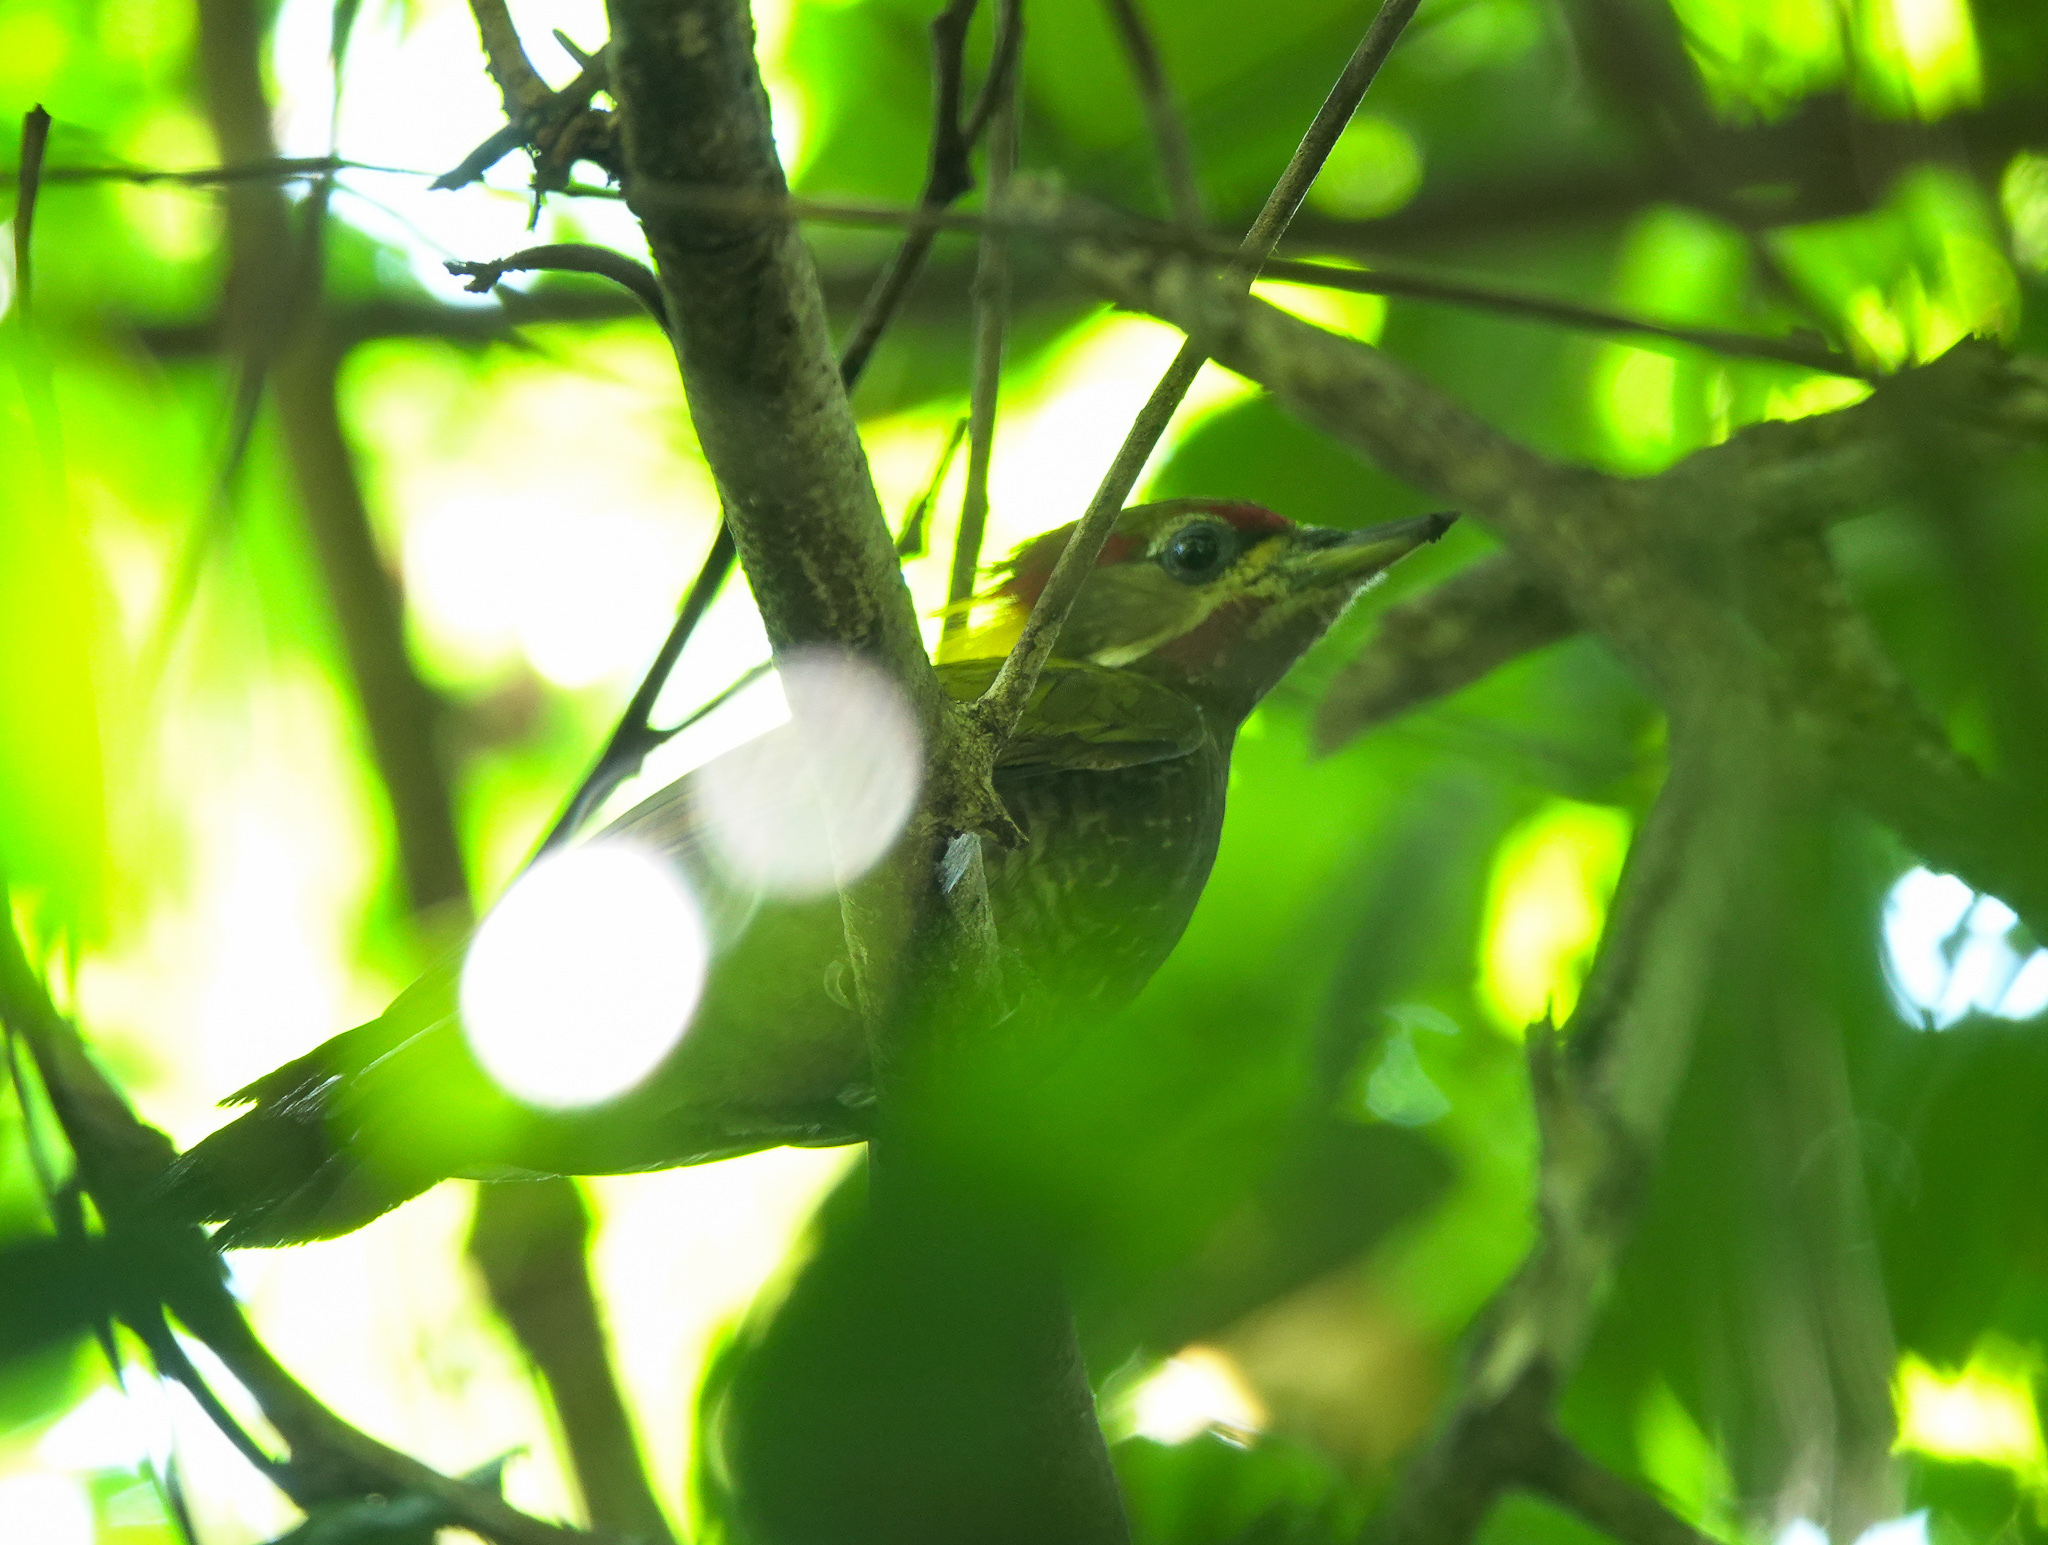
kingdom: Animalia
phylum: Chordata
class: Aves
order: Piciformes
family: Picidae
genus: Picus
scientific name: Picus chlorolophus
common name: Lesser yellownape
